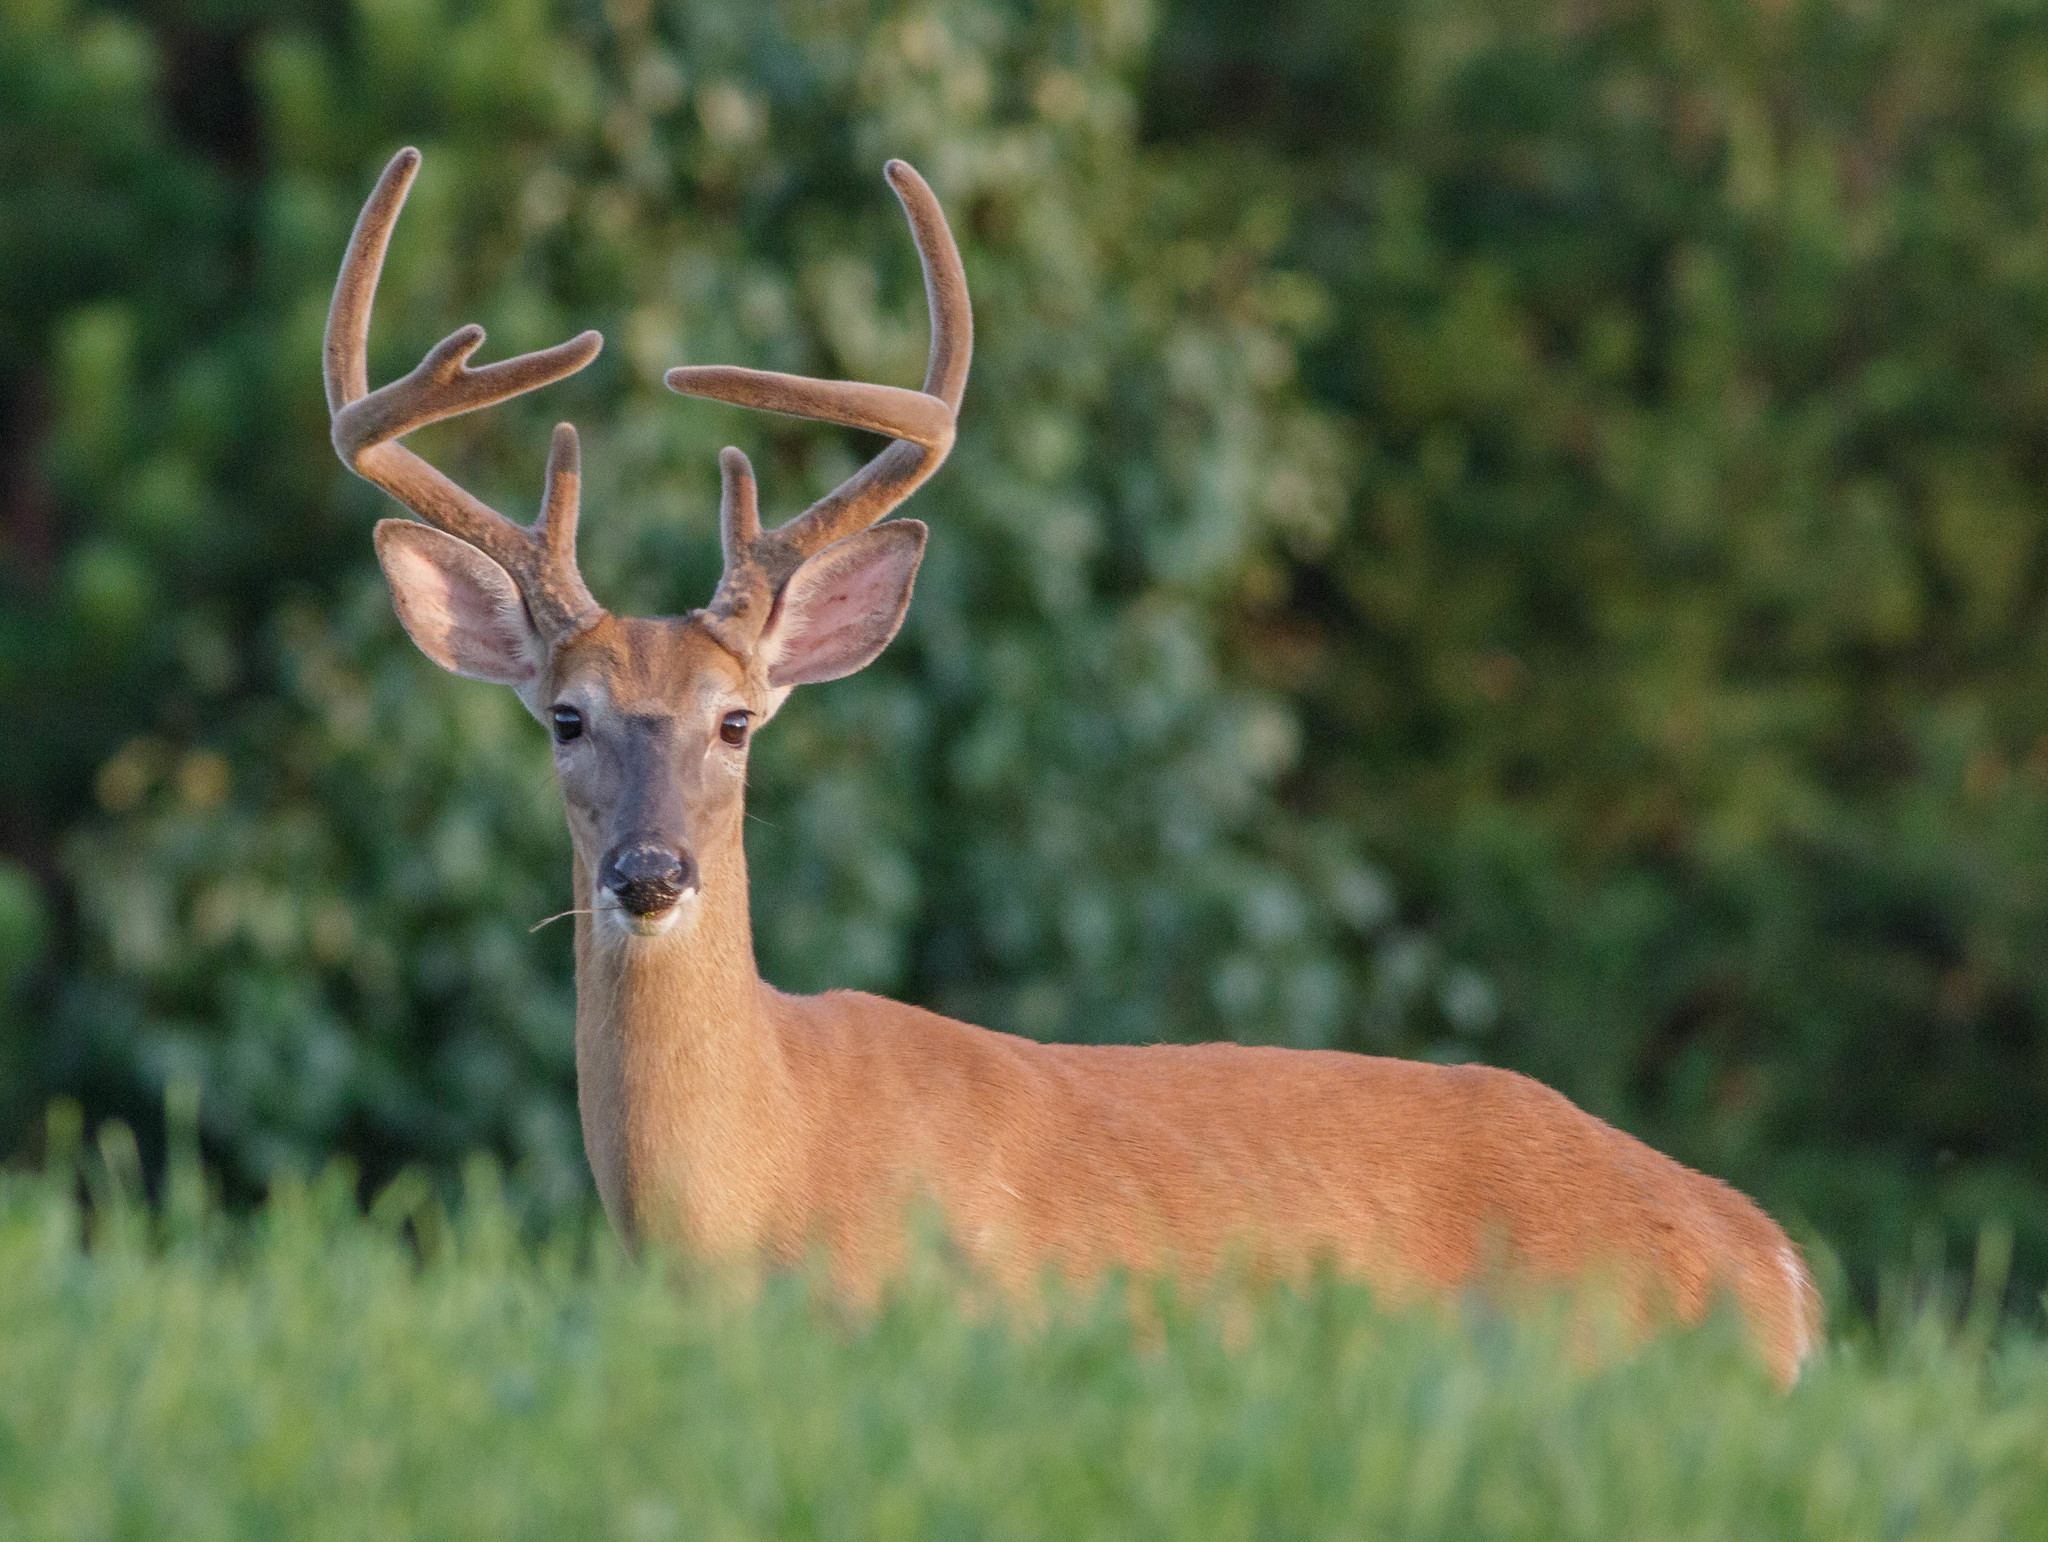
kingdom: Animalia
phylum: Chordata
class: Mammalia
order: Artiodactyla
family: Cervidae
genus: Odocoileus
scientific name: Odocoileus virginianus
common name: White-tailed deer
